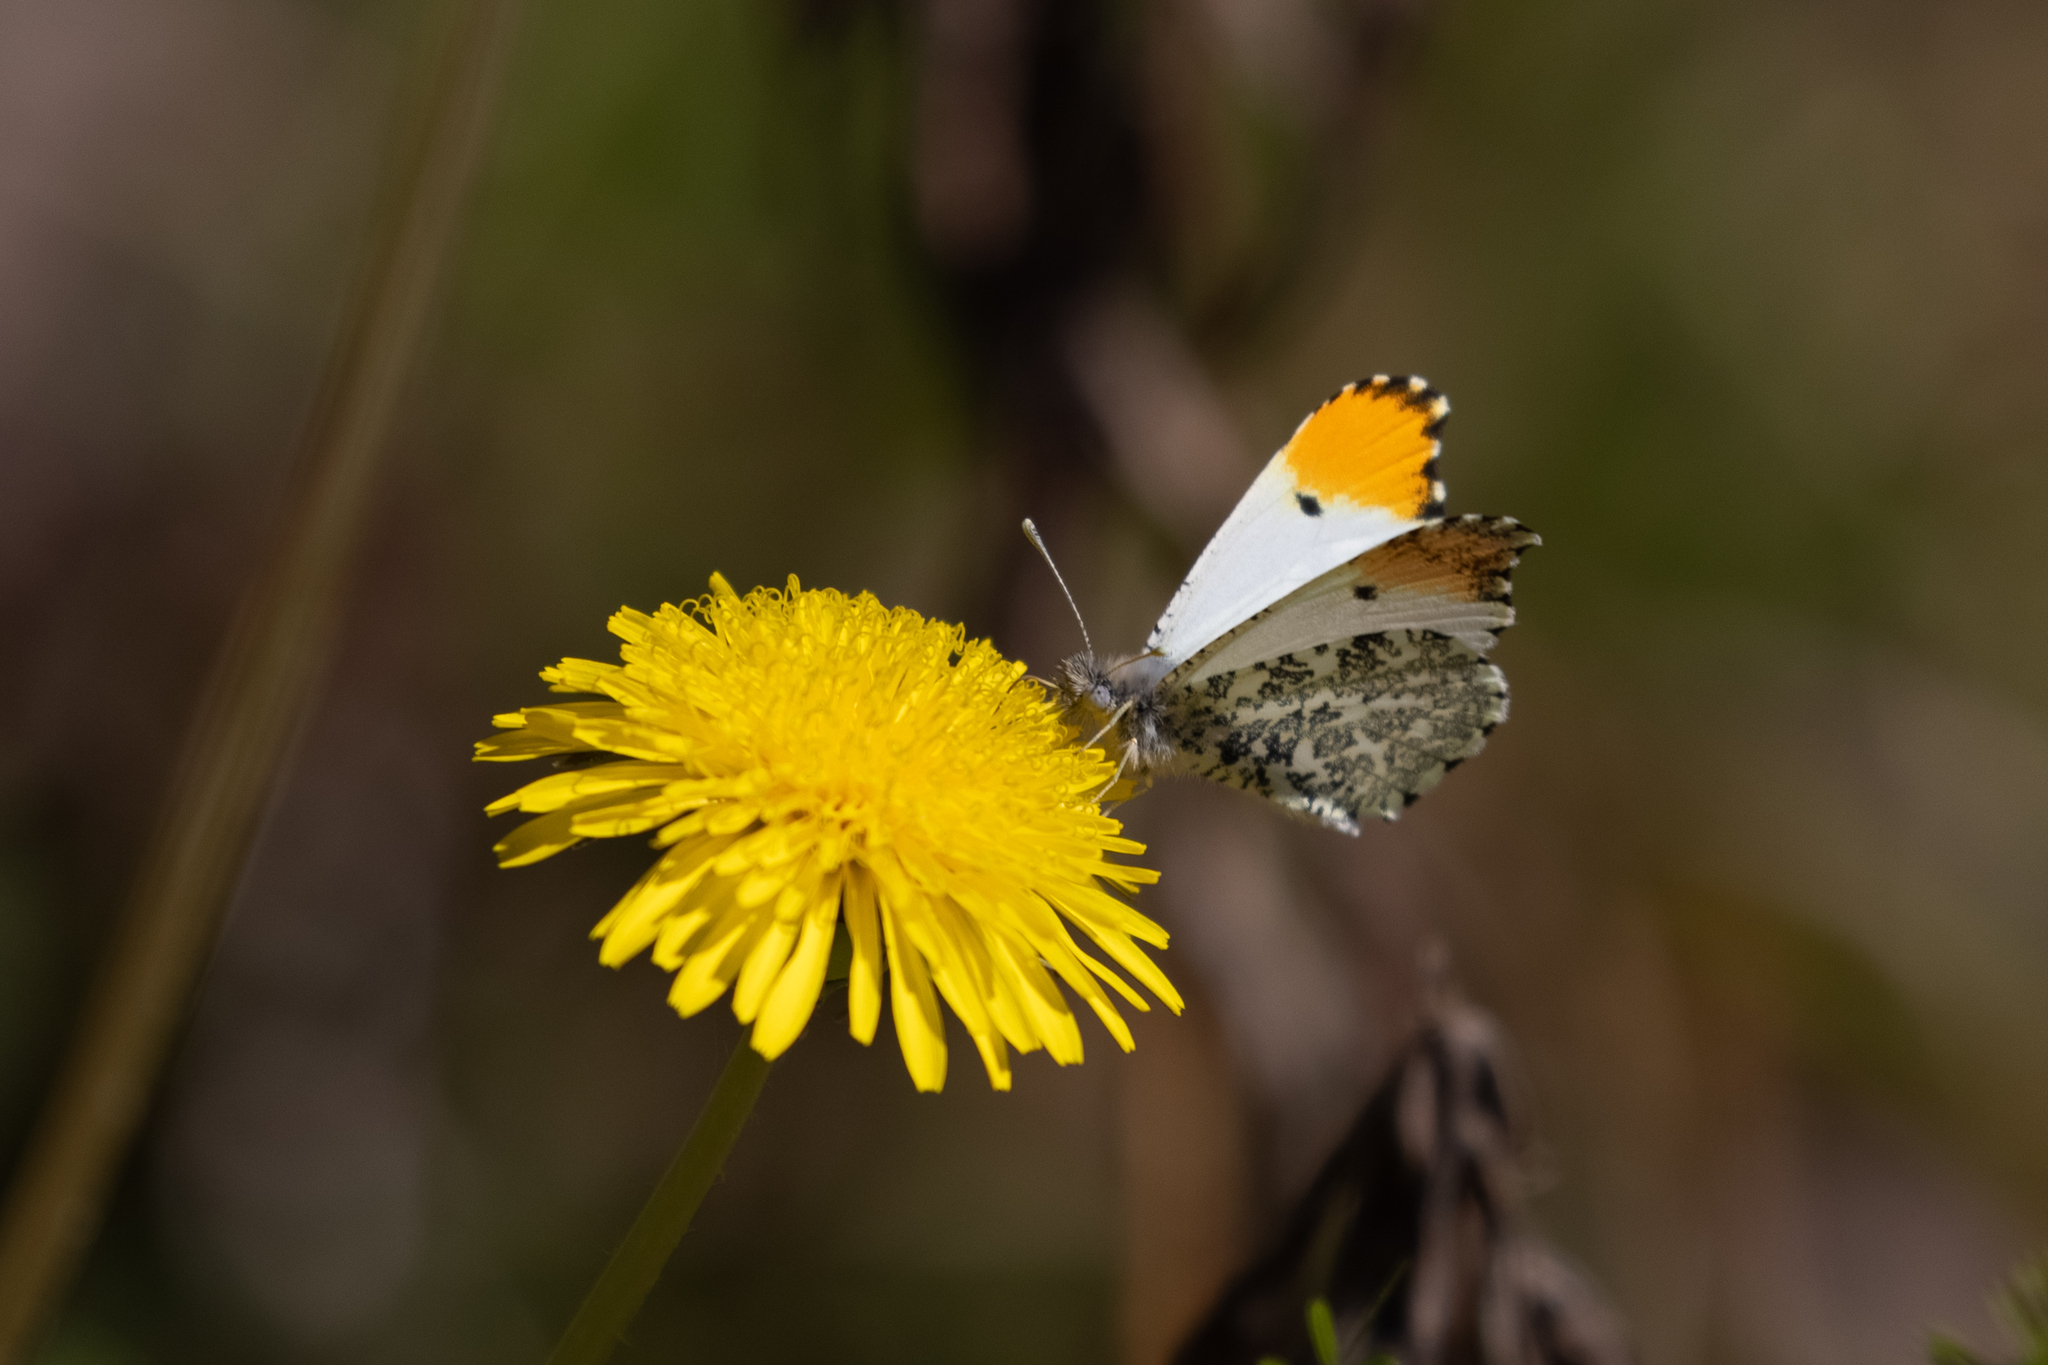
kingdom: Animalia
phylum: Arthropoda
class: Insecta
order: Lepidoptera
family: Pieridae
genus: Anthocharis
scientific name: Anthocharis midea
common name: Falcate orangetip
